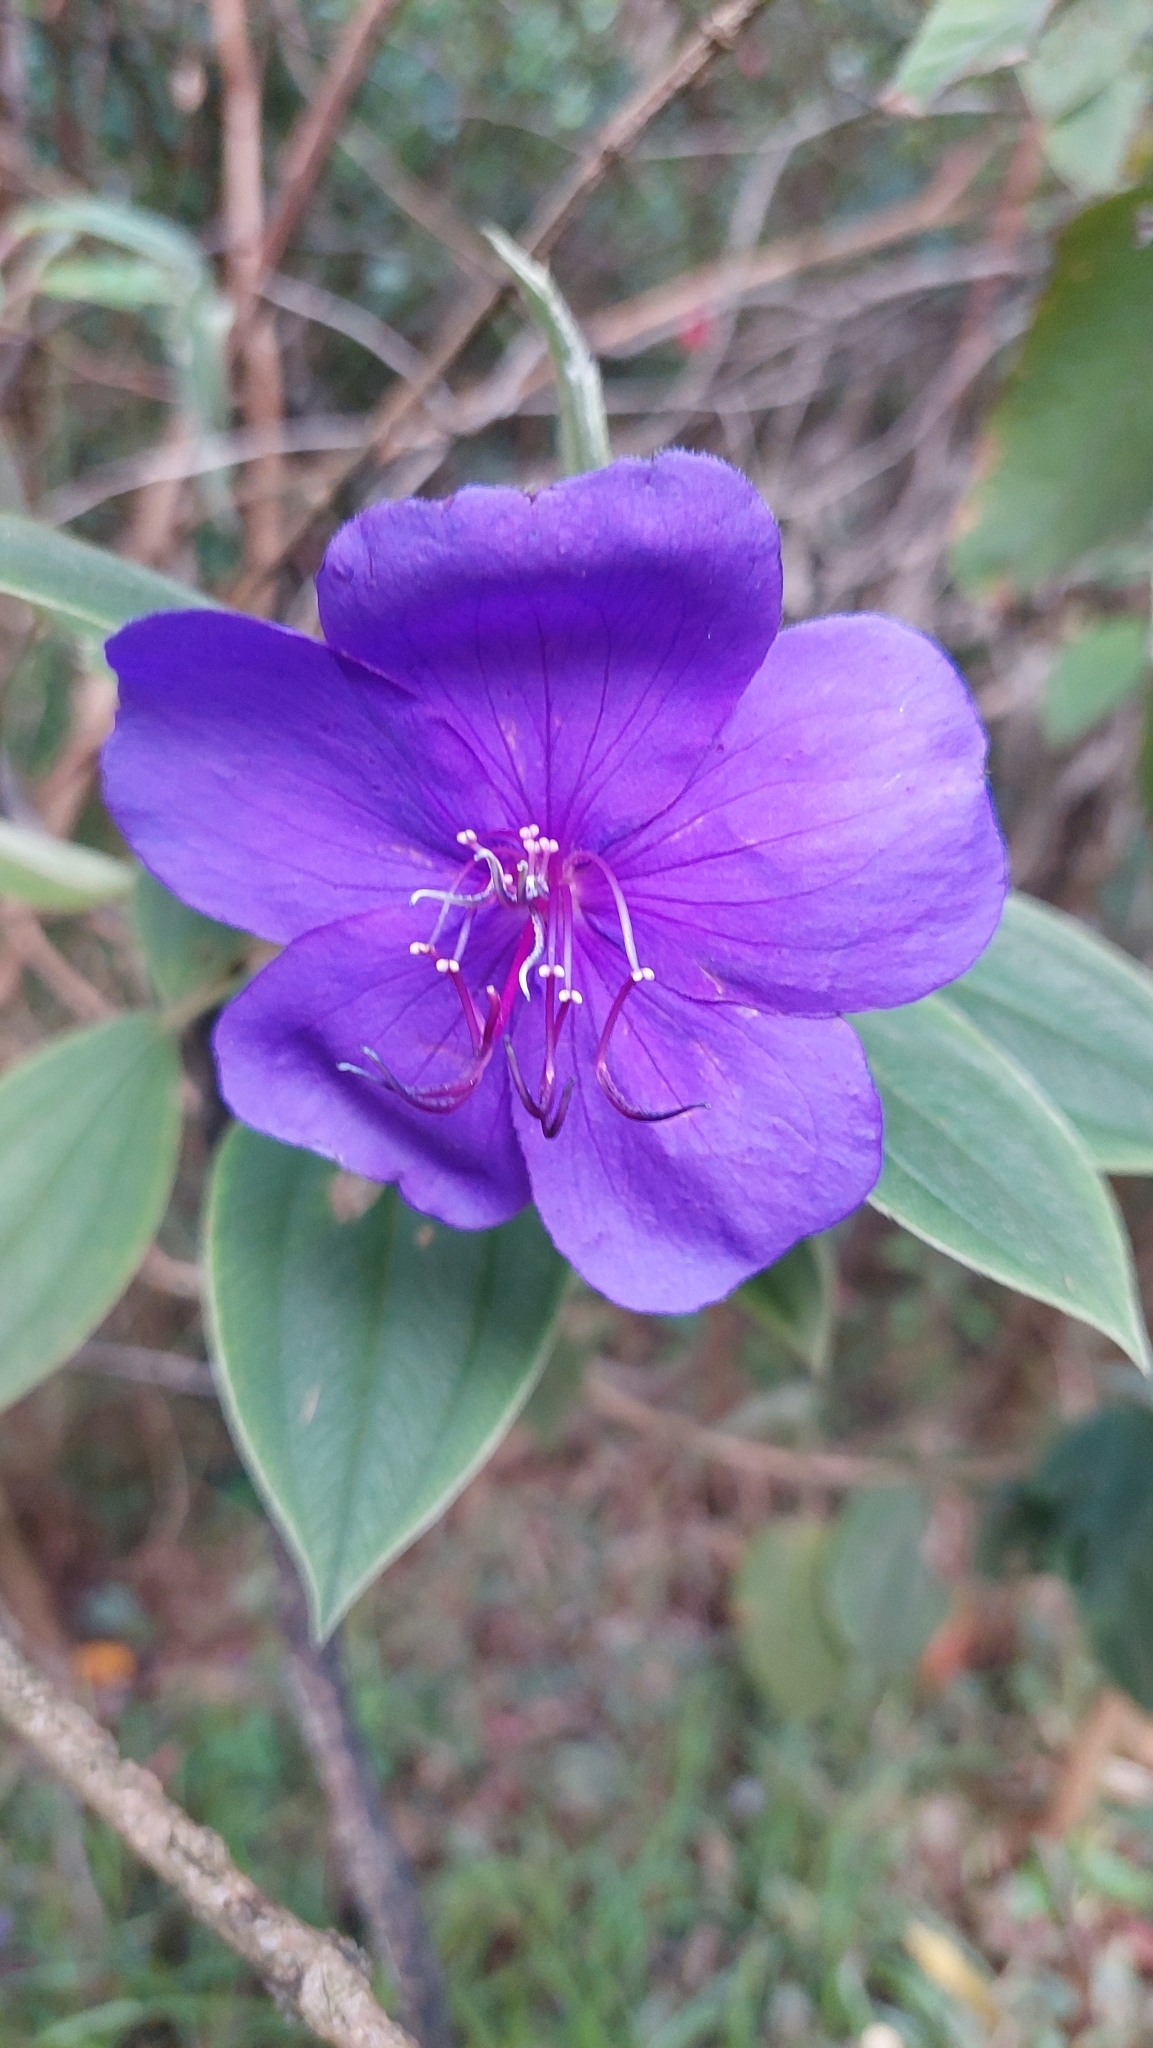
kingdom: Plantae
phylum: Tracheophyta
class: Magnoliopsida
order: Myrtales
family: Melastomataceae
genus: Pleroma
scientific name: Pleroma urvilleanum
